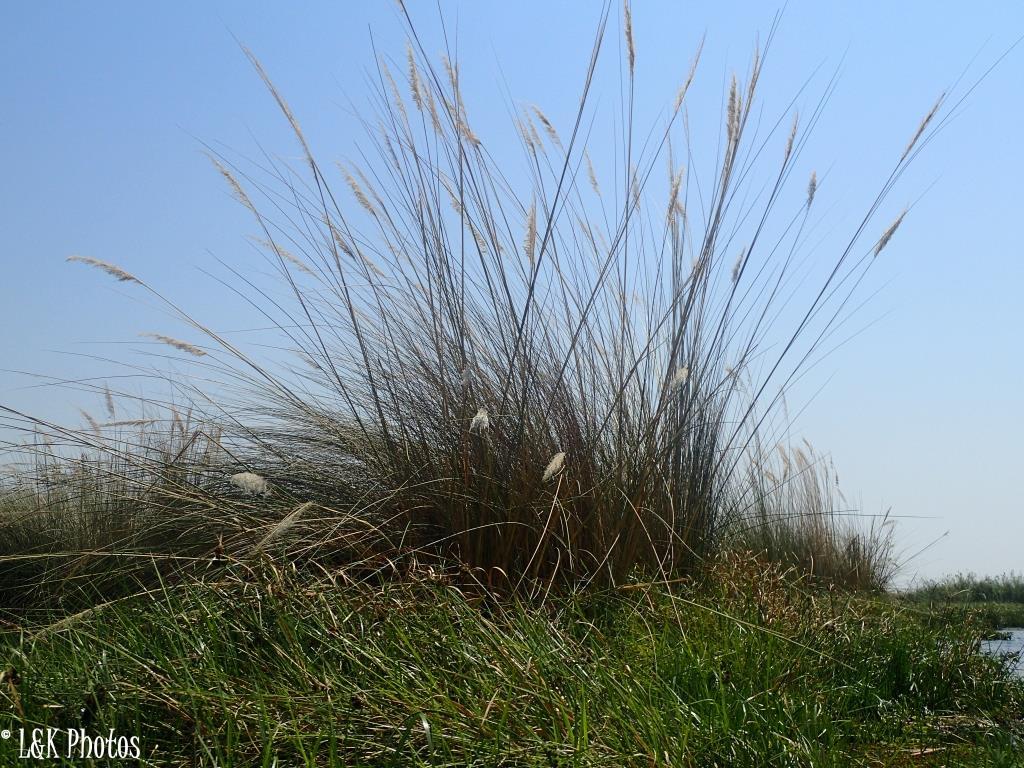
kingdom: Plantae
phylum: Tracheophyta
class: Liliopsida
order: Poales
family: Poaceae
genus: Miscanthidium
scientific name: Miscanthidium junceum
